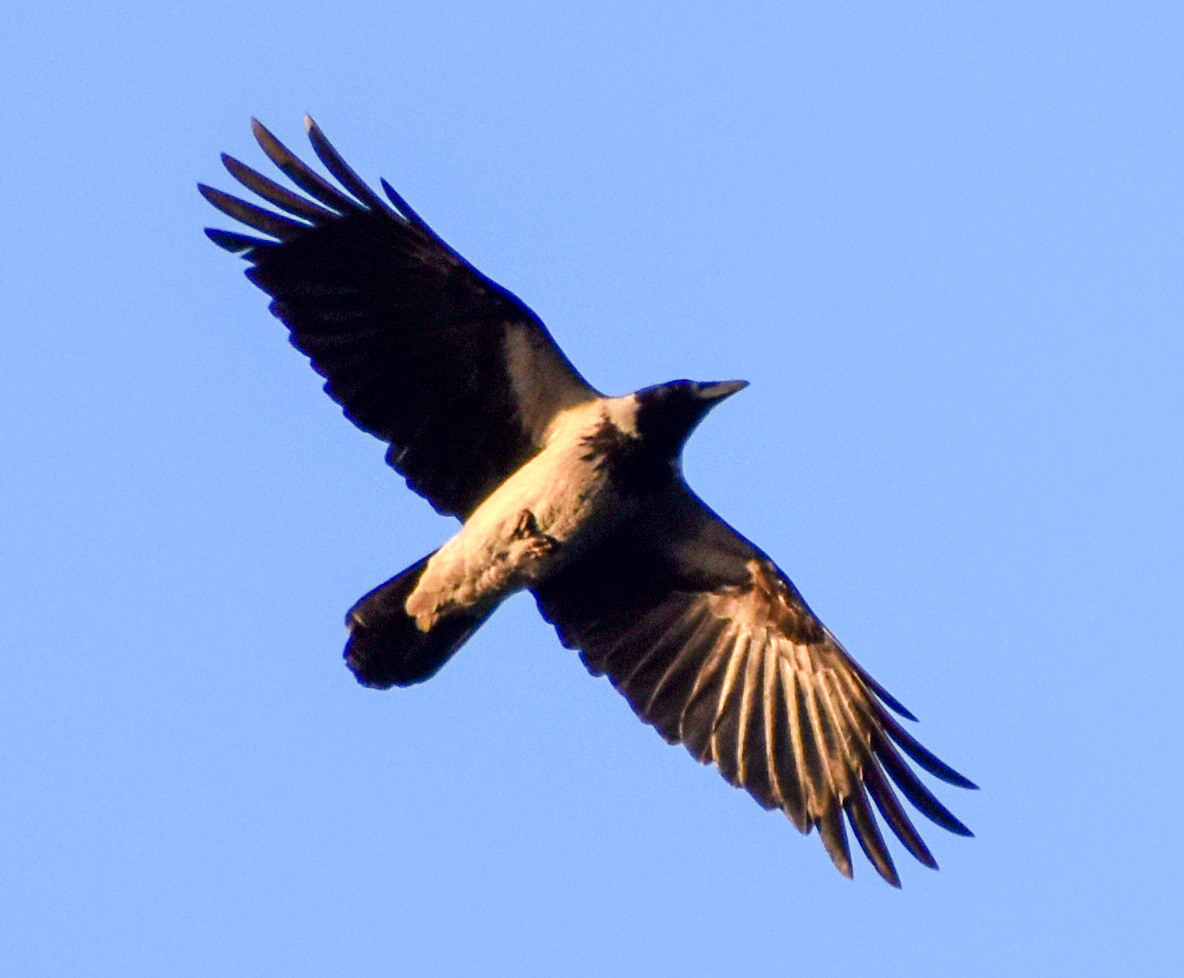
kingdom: Animalia
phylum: Chordata
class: Aves
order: Passeriformes
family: Corvidae
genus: Corvus
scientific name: Corvus cornix
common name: Hooded crow
